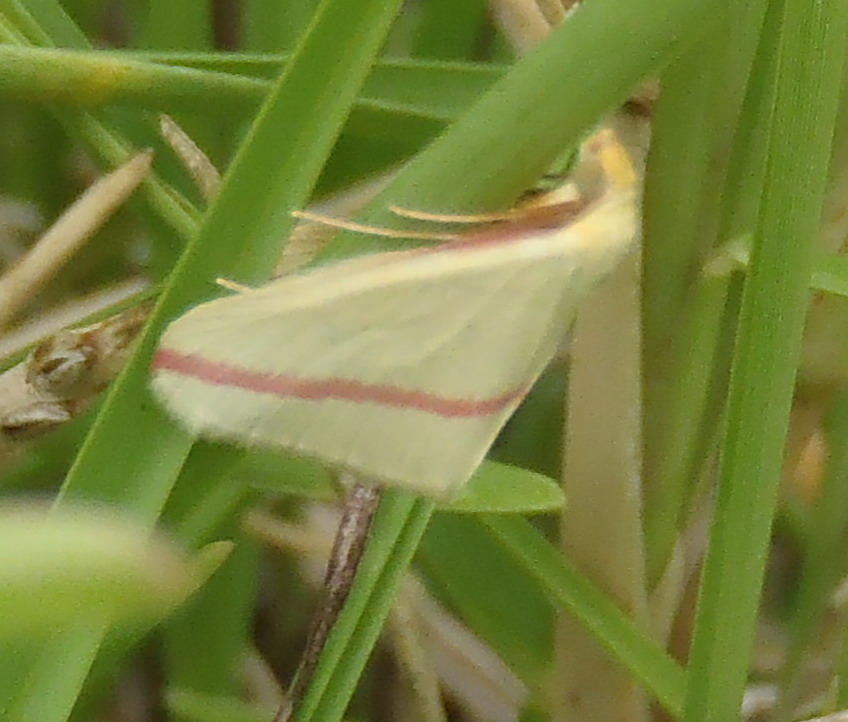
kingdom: Animalia
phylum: Arthropoda
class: Insecta
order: Lepidoptera
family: Geometridae
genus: Rhodometra
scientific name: Rhodometra sacraria
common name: Vestal
